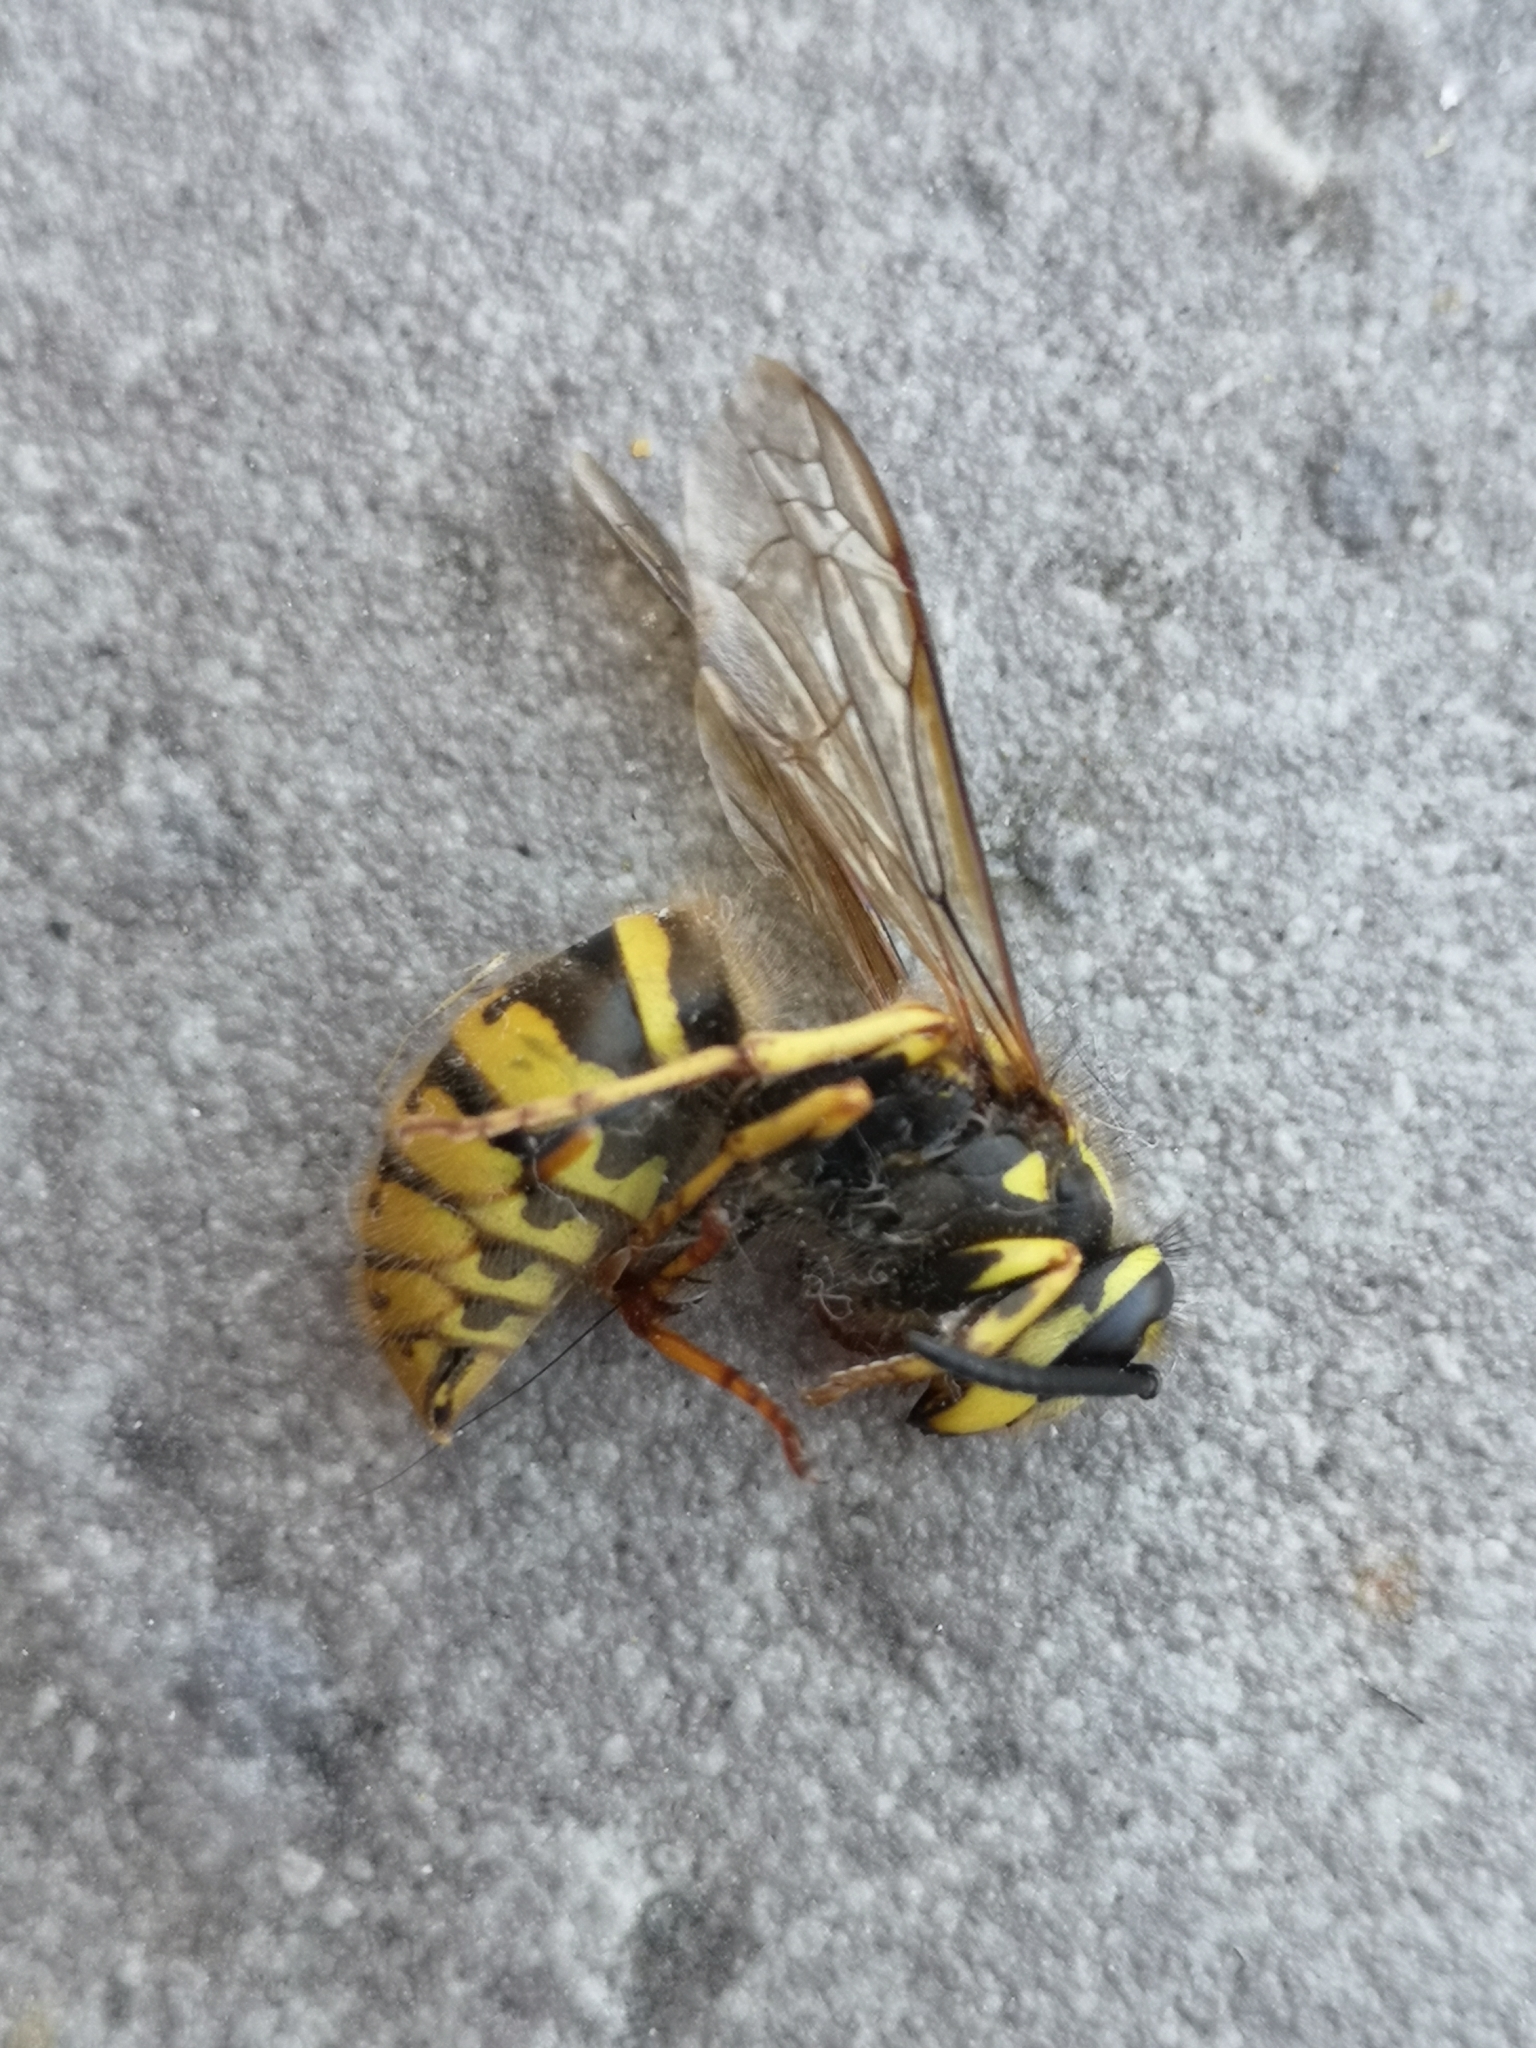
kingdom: Animalia
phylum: Arthropoda
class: Insecta
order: Hymenoptera
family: Vespidae
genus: Vespula
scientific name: Vespula vulgaris
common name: Common wasp
